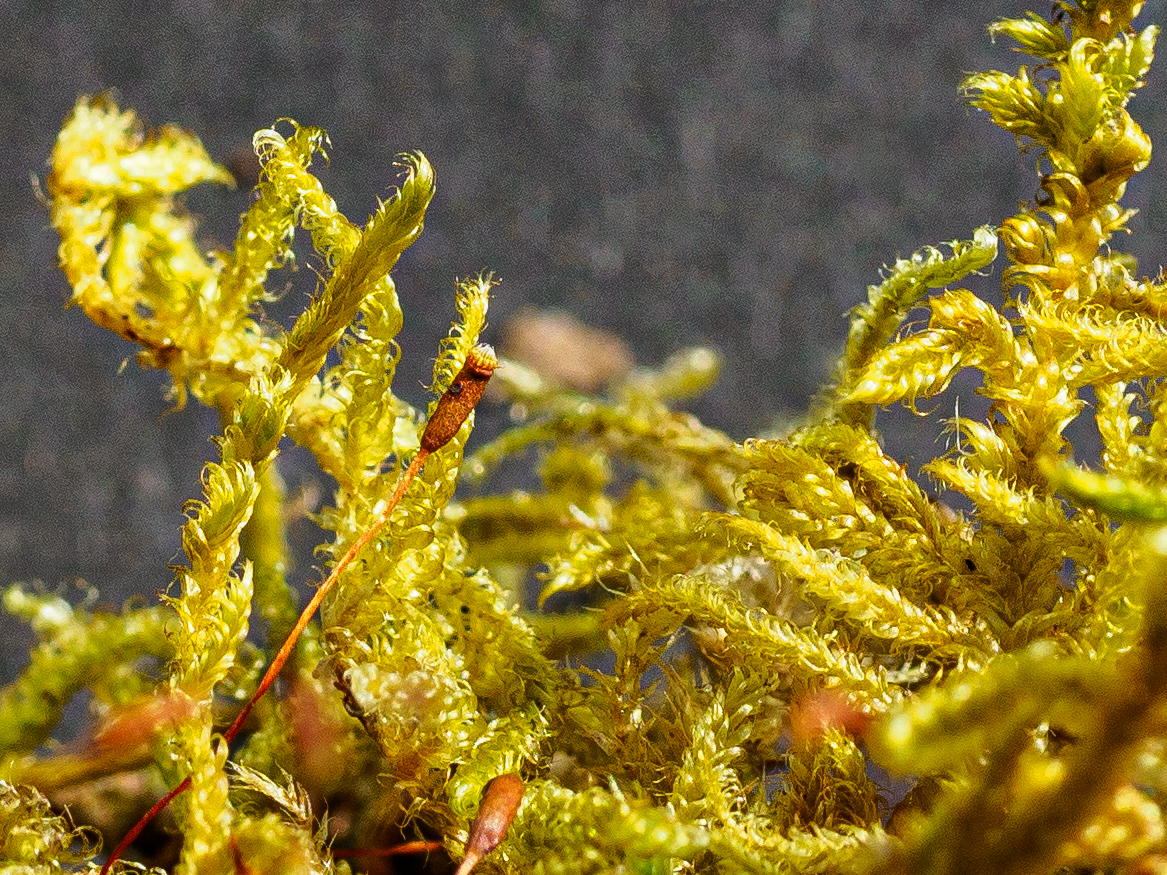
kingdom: Plantae
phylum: Bryophyta
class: Bryopsida
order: Hypnales
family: Hypnaceae
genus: Hypnum
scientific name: Hypnum cupressiforme
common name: Cypress-leaved plait-moss
